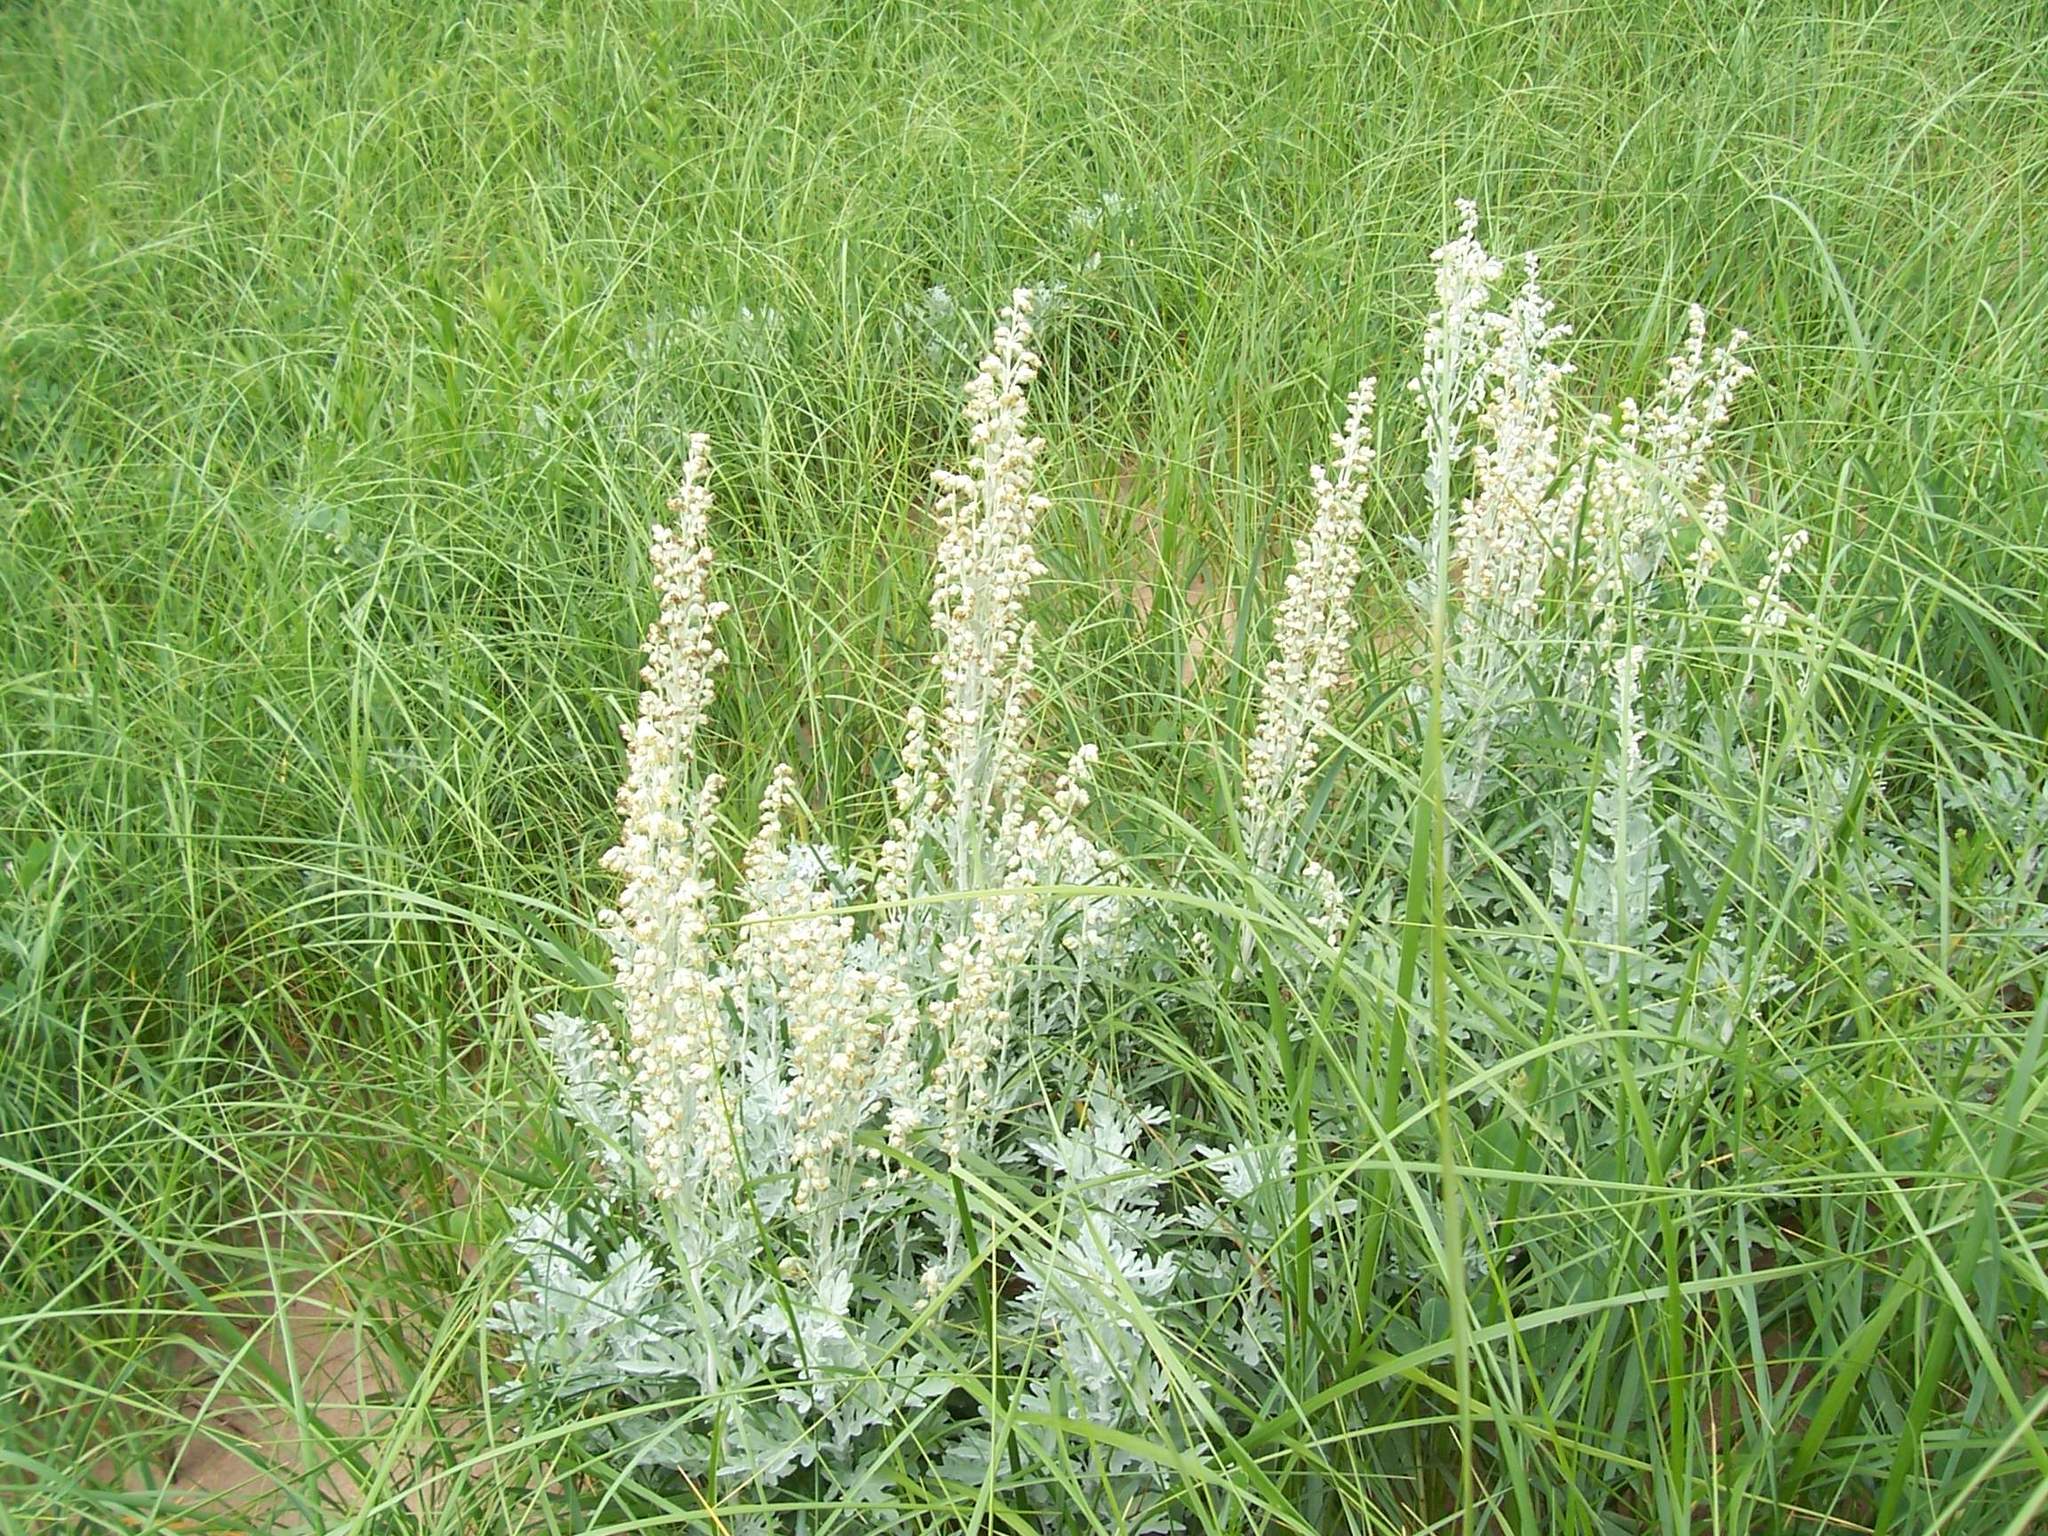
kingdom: Plantae
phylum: Tracheophyta
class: Magnoliopsida
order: Asterales
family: Asteraceae
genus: Artemisia
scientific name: Artemisia stelleriana
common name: Beach wormwood
